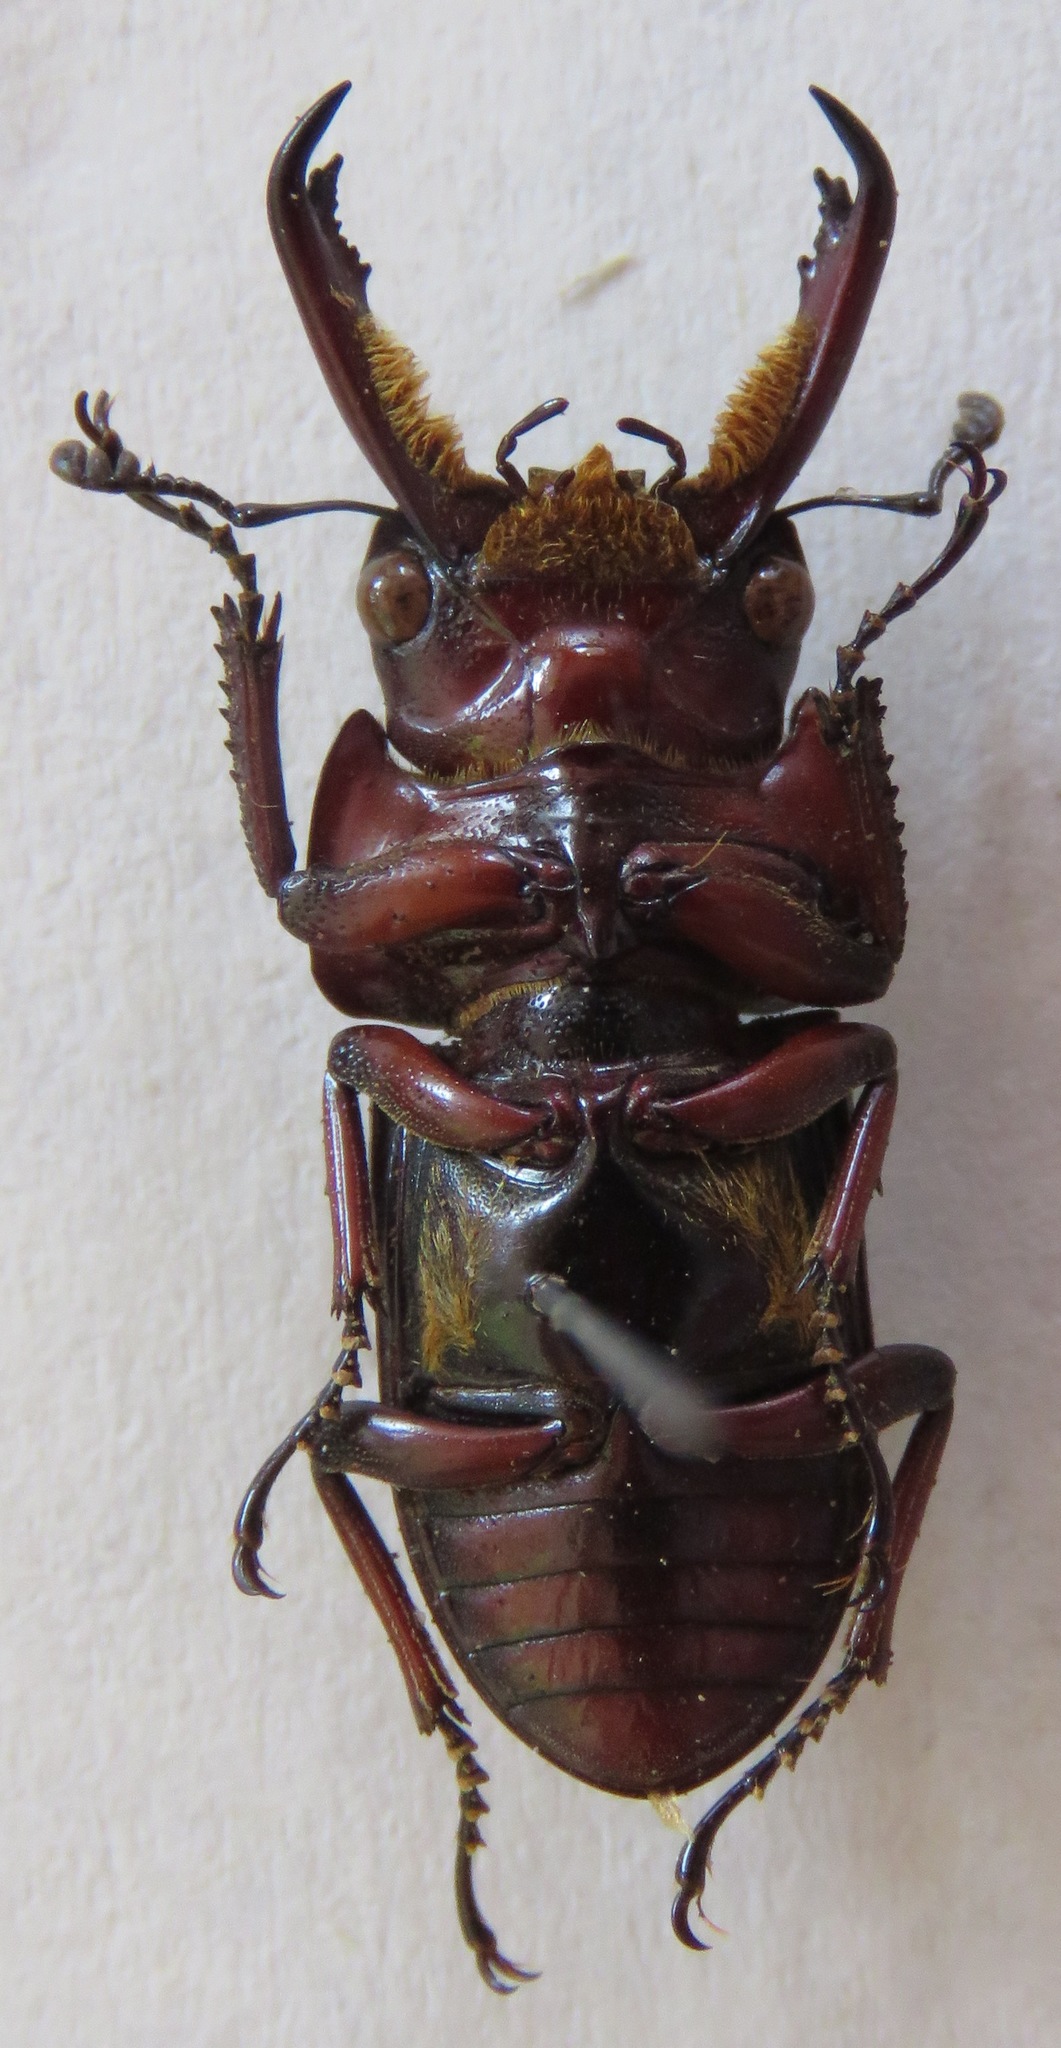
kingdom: Animalia
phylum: Arthropoda
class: Insecta
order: Coleoptera
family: Lucanidae
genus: Falcicornis
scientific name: Falcicornis mellianus
